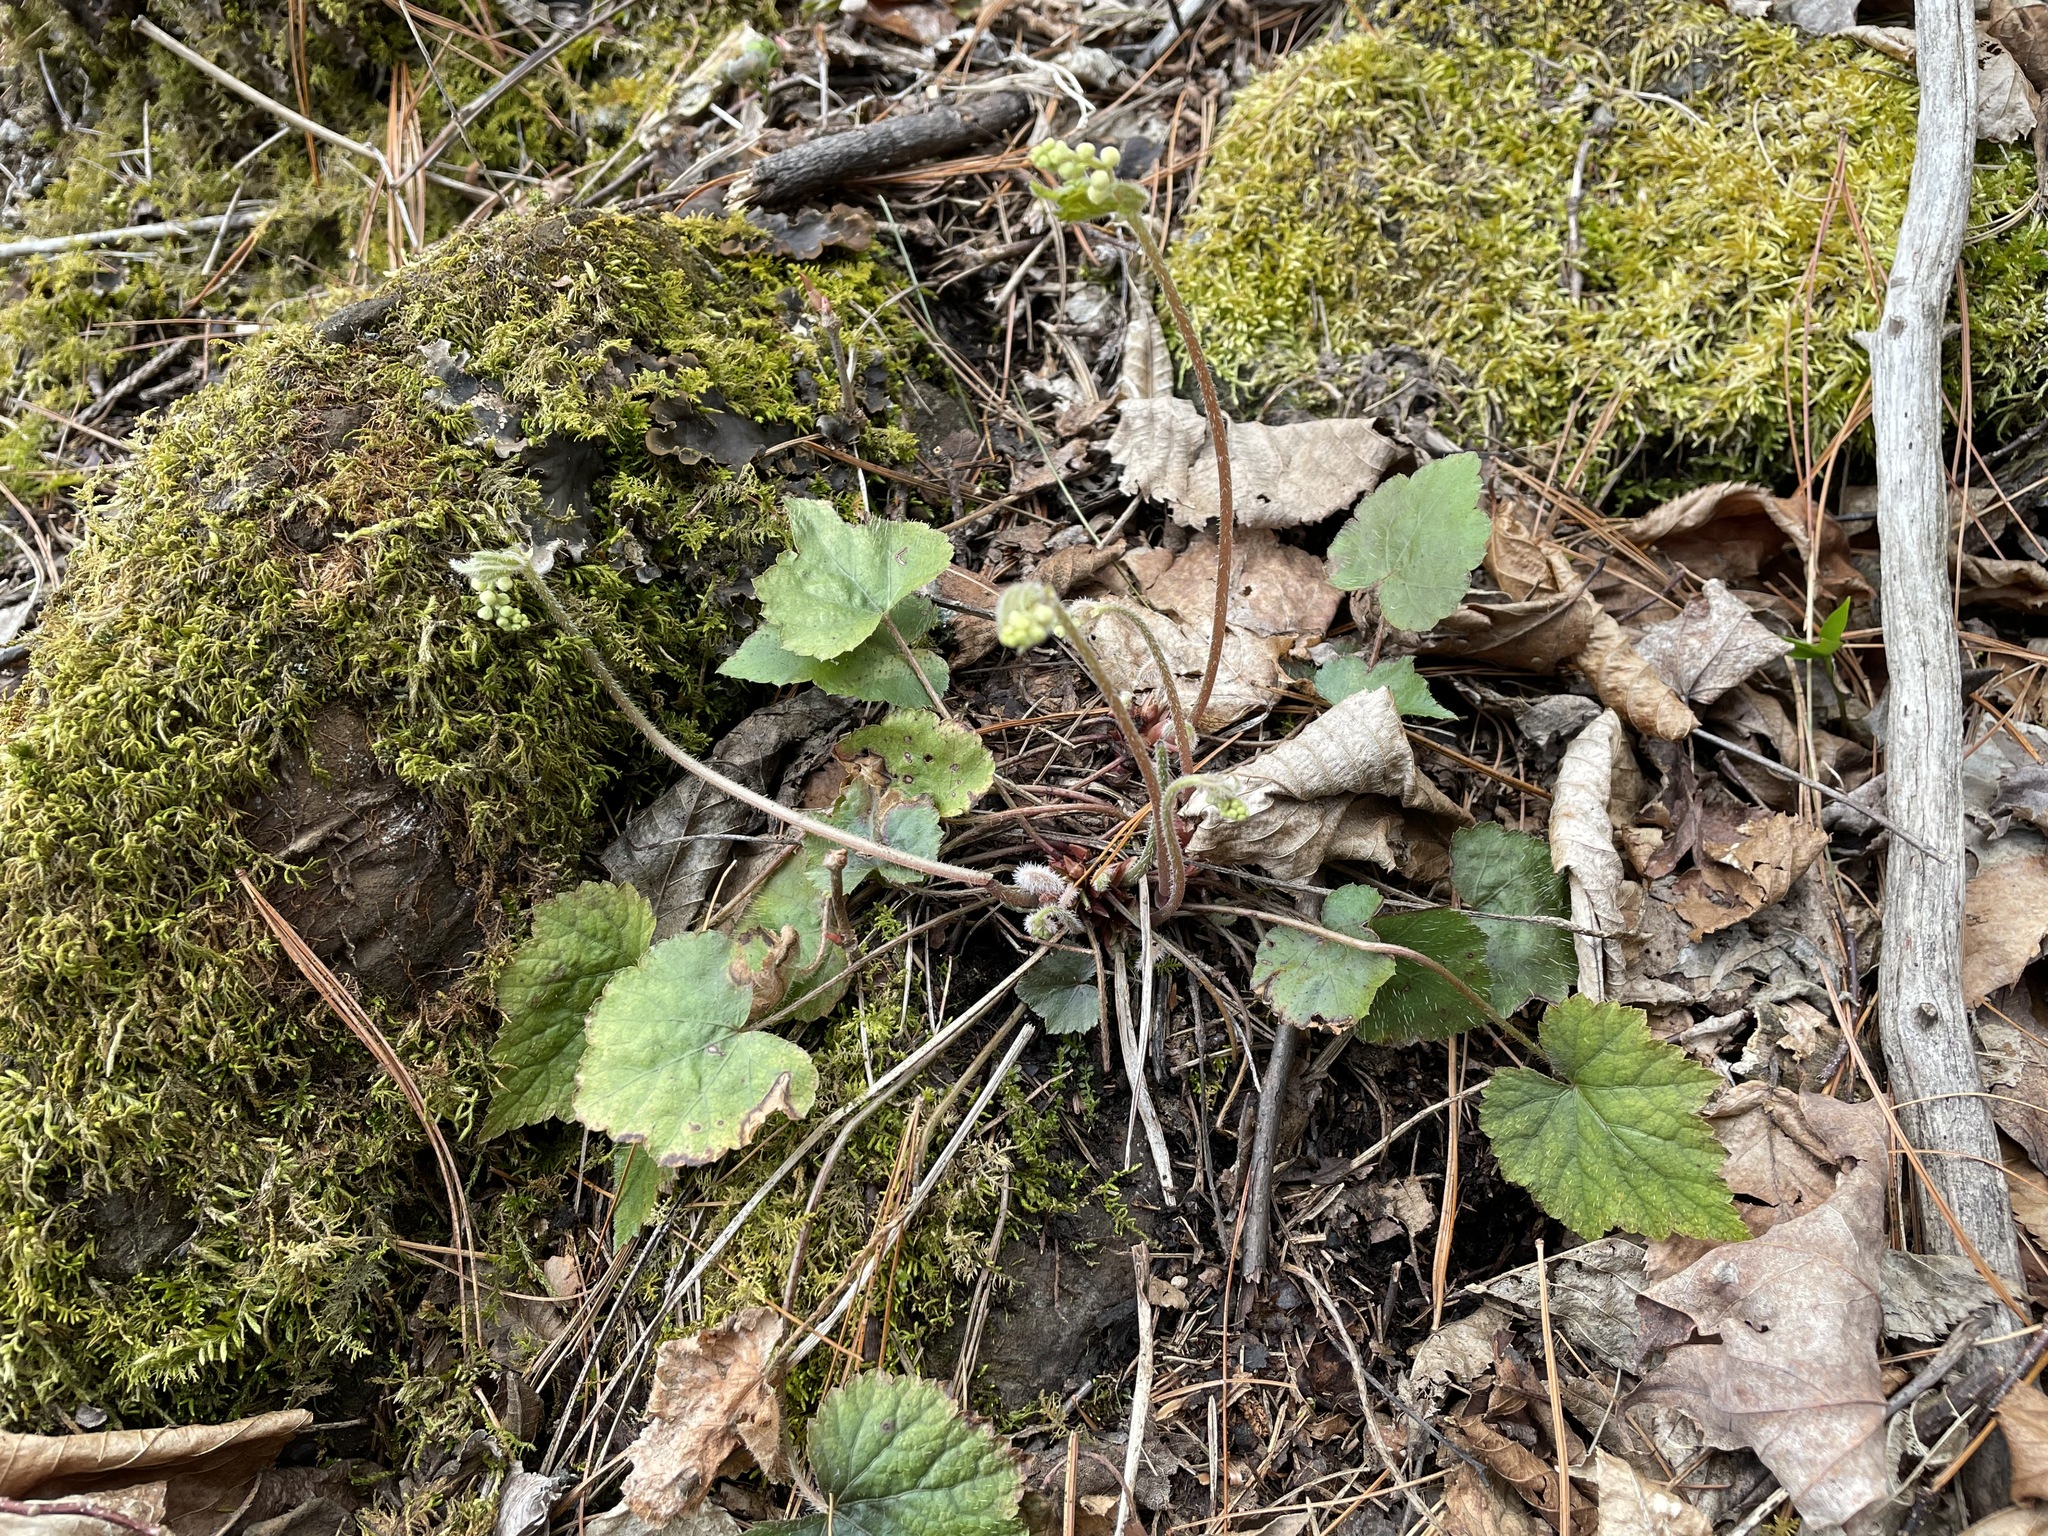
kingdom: Plantae
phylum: Tracheophyta
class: Magnoliopsida
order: Saxifragales
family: Saxifragaceae
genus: Mitella
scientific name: Mitella diphylla
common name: Coolwort
